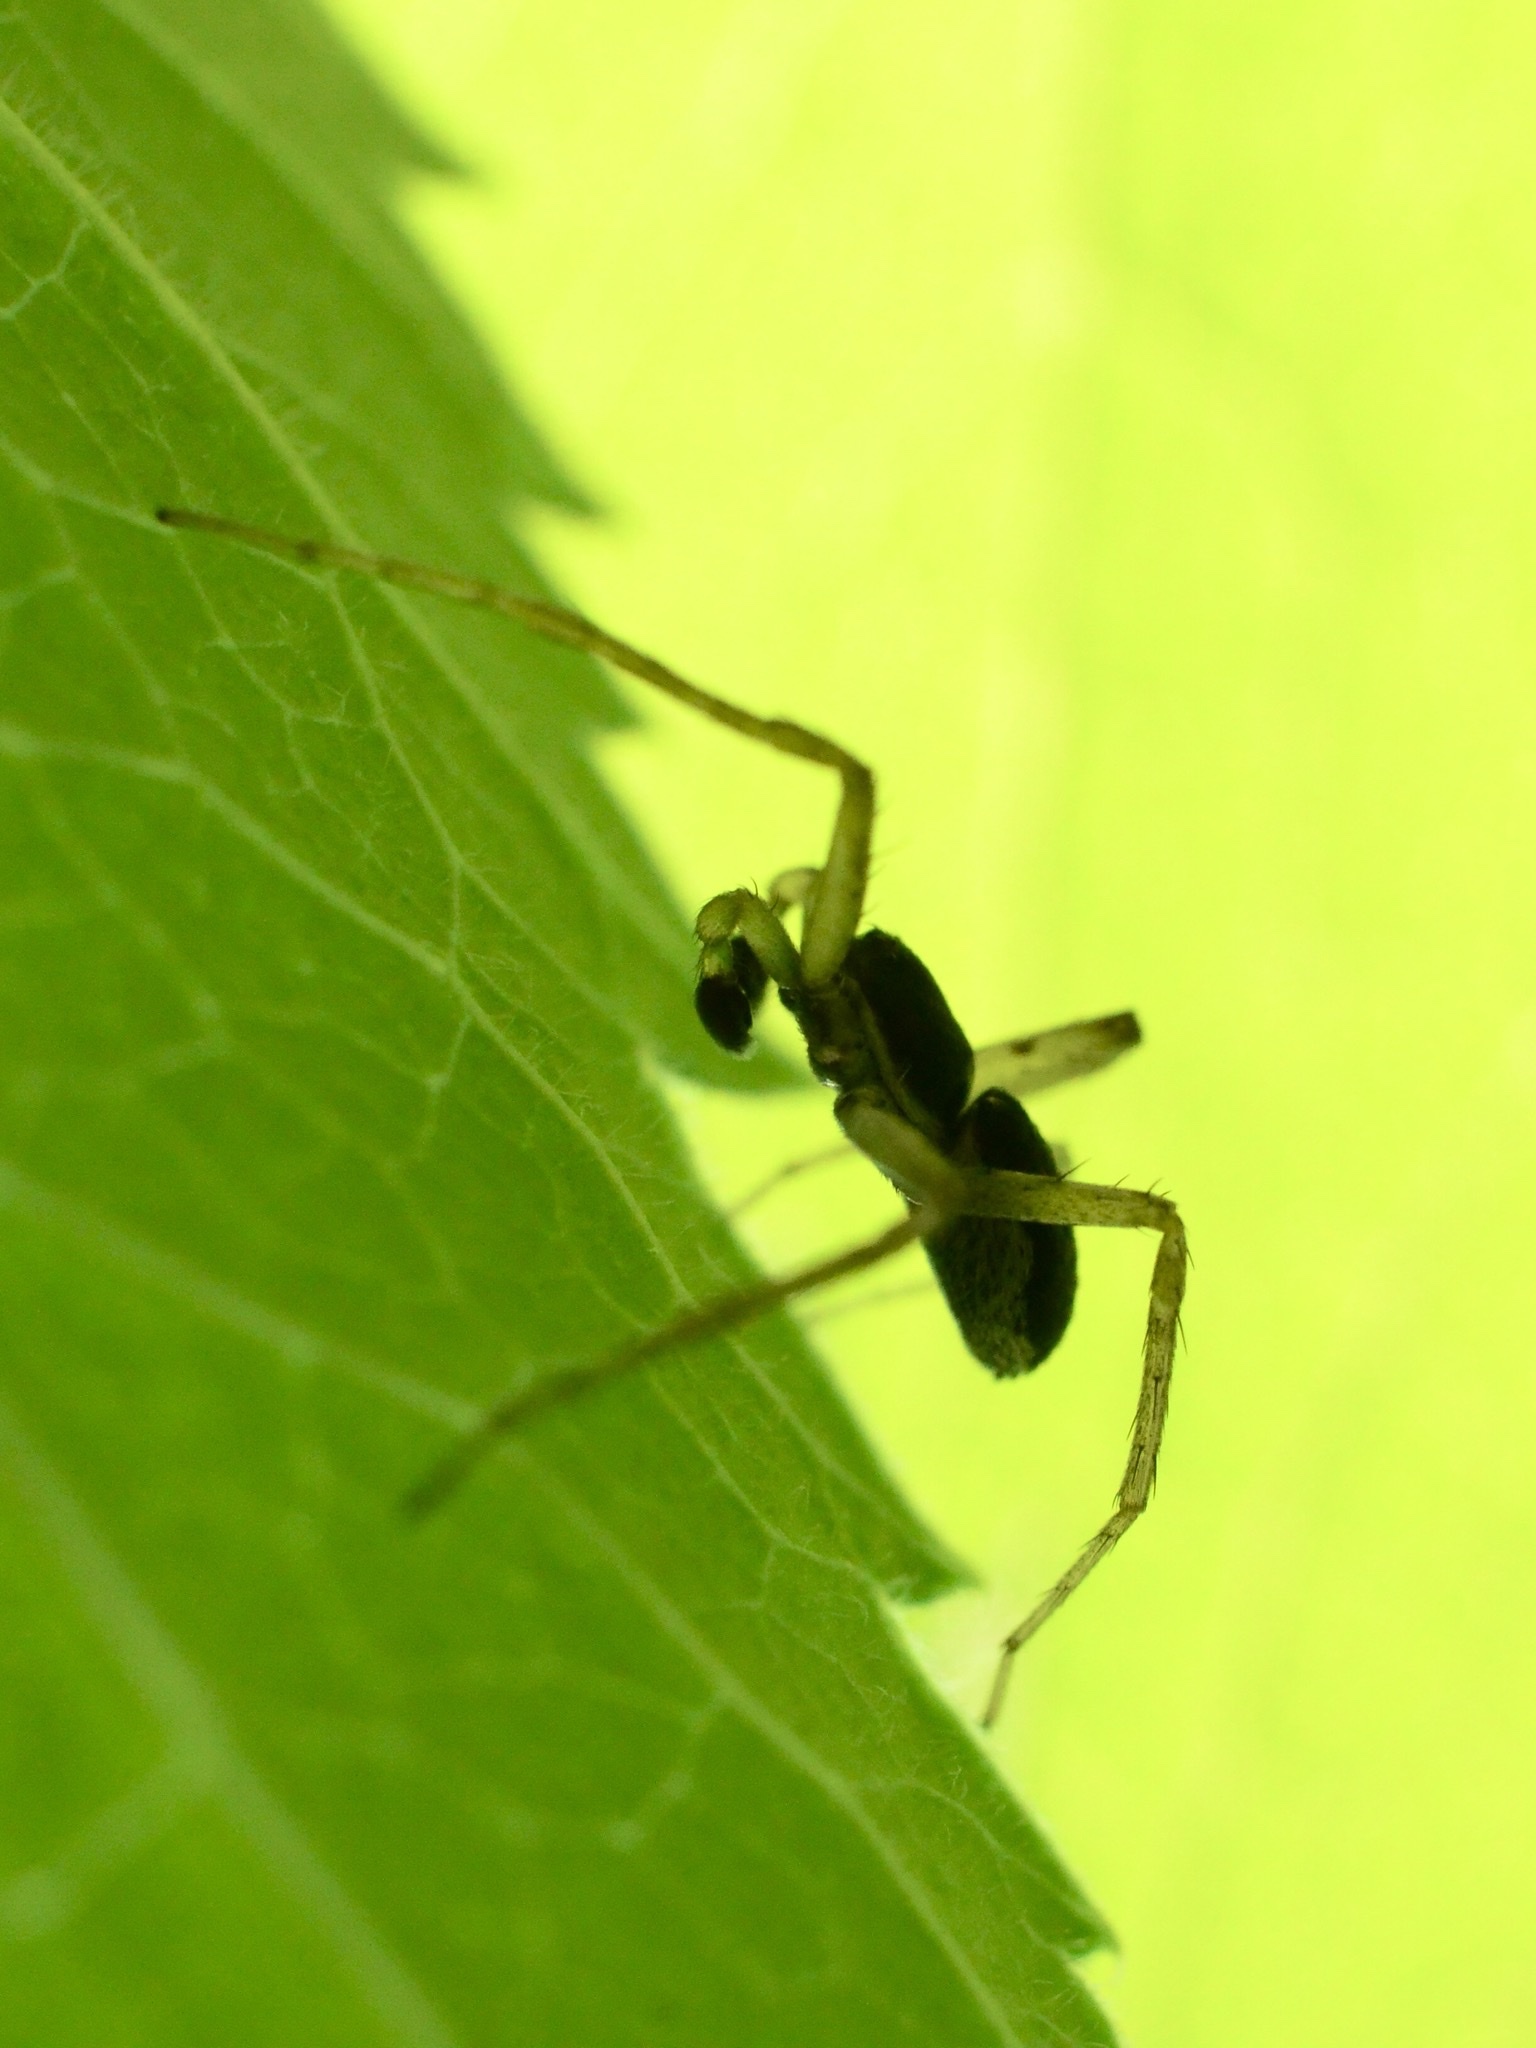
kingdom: Animalia
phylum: Arthropoda
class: Arachnida
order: Araneae
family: Philodromidae
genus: Philodromus
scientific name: Philodromus dispar
